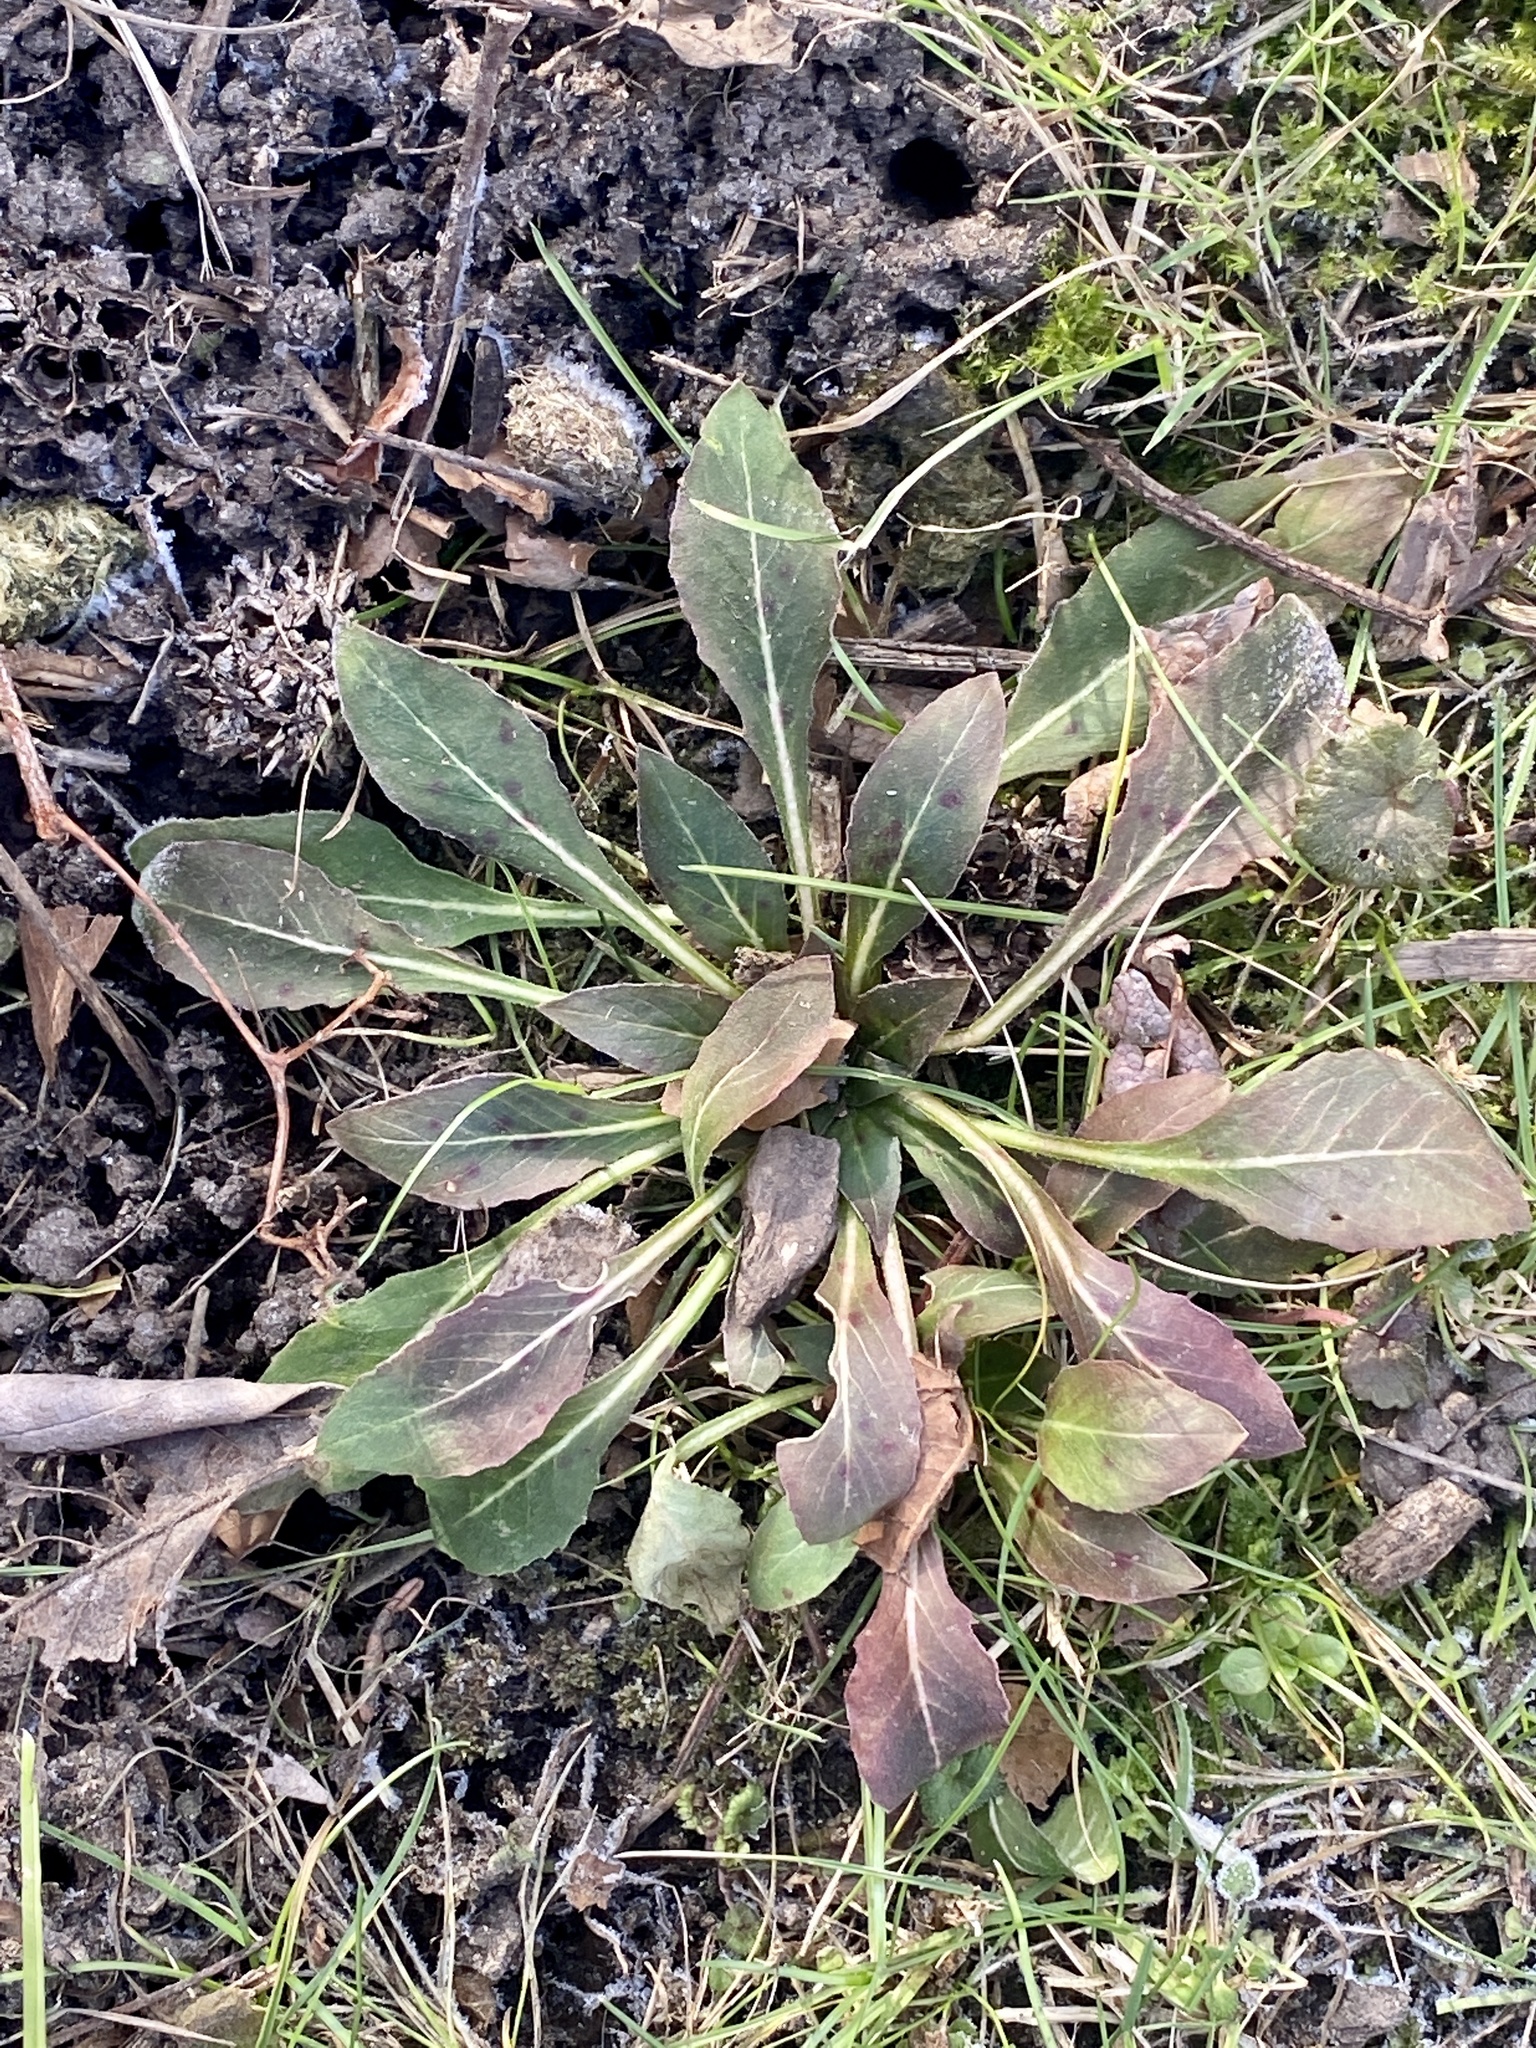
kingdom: Plantae
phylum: Tracheophyta
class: Magnoliopsida
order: Myrtales
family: Onagraceae
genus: Oenothera
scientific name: Oenothera biennis
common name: Common evening-primrose
